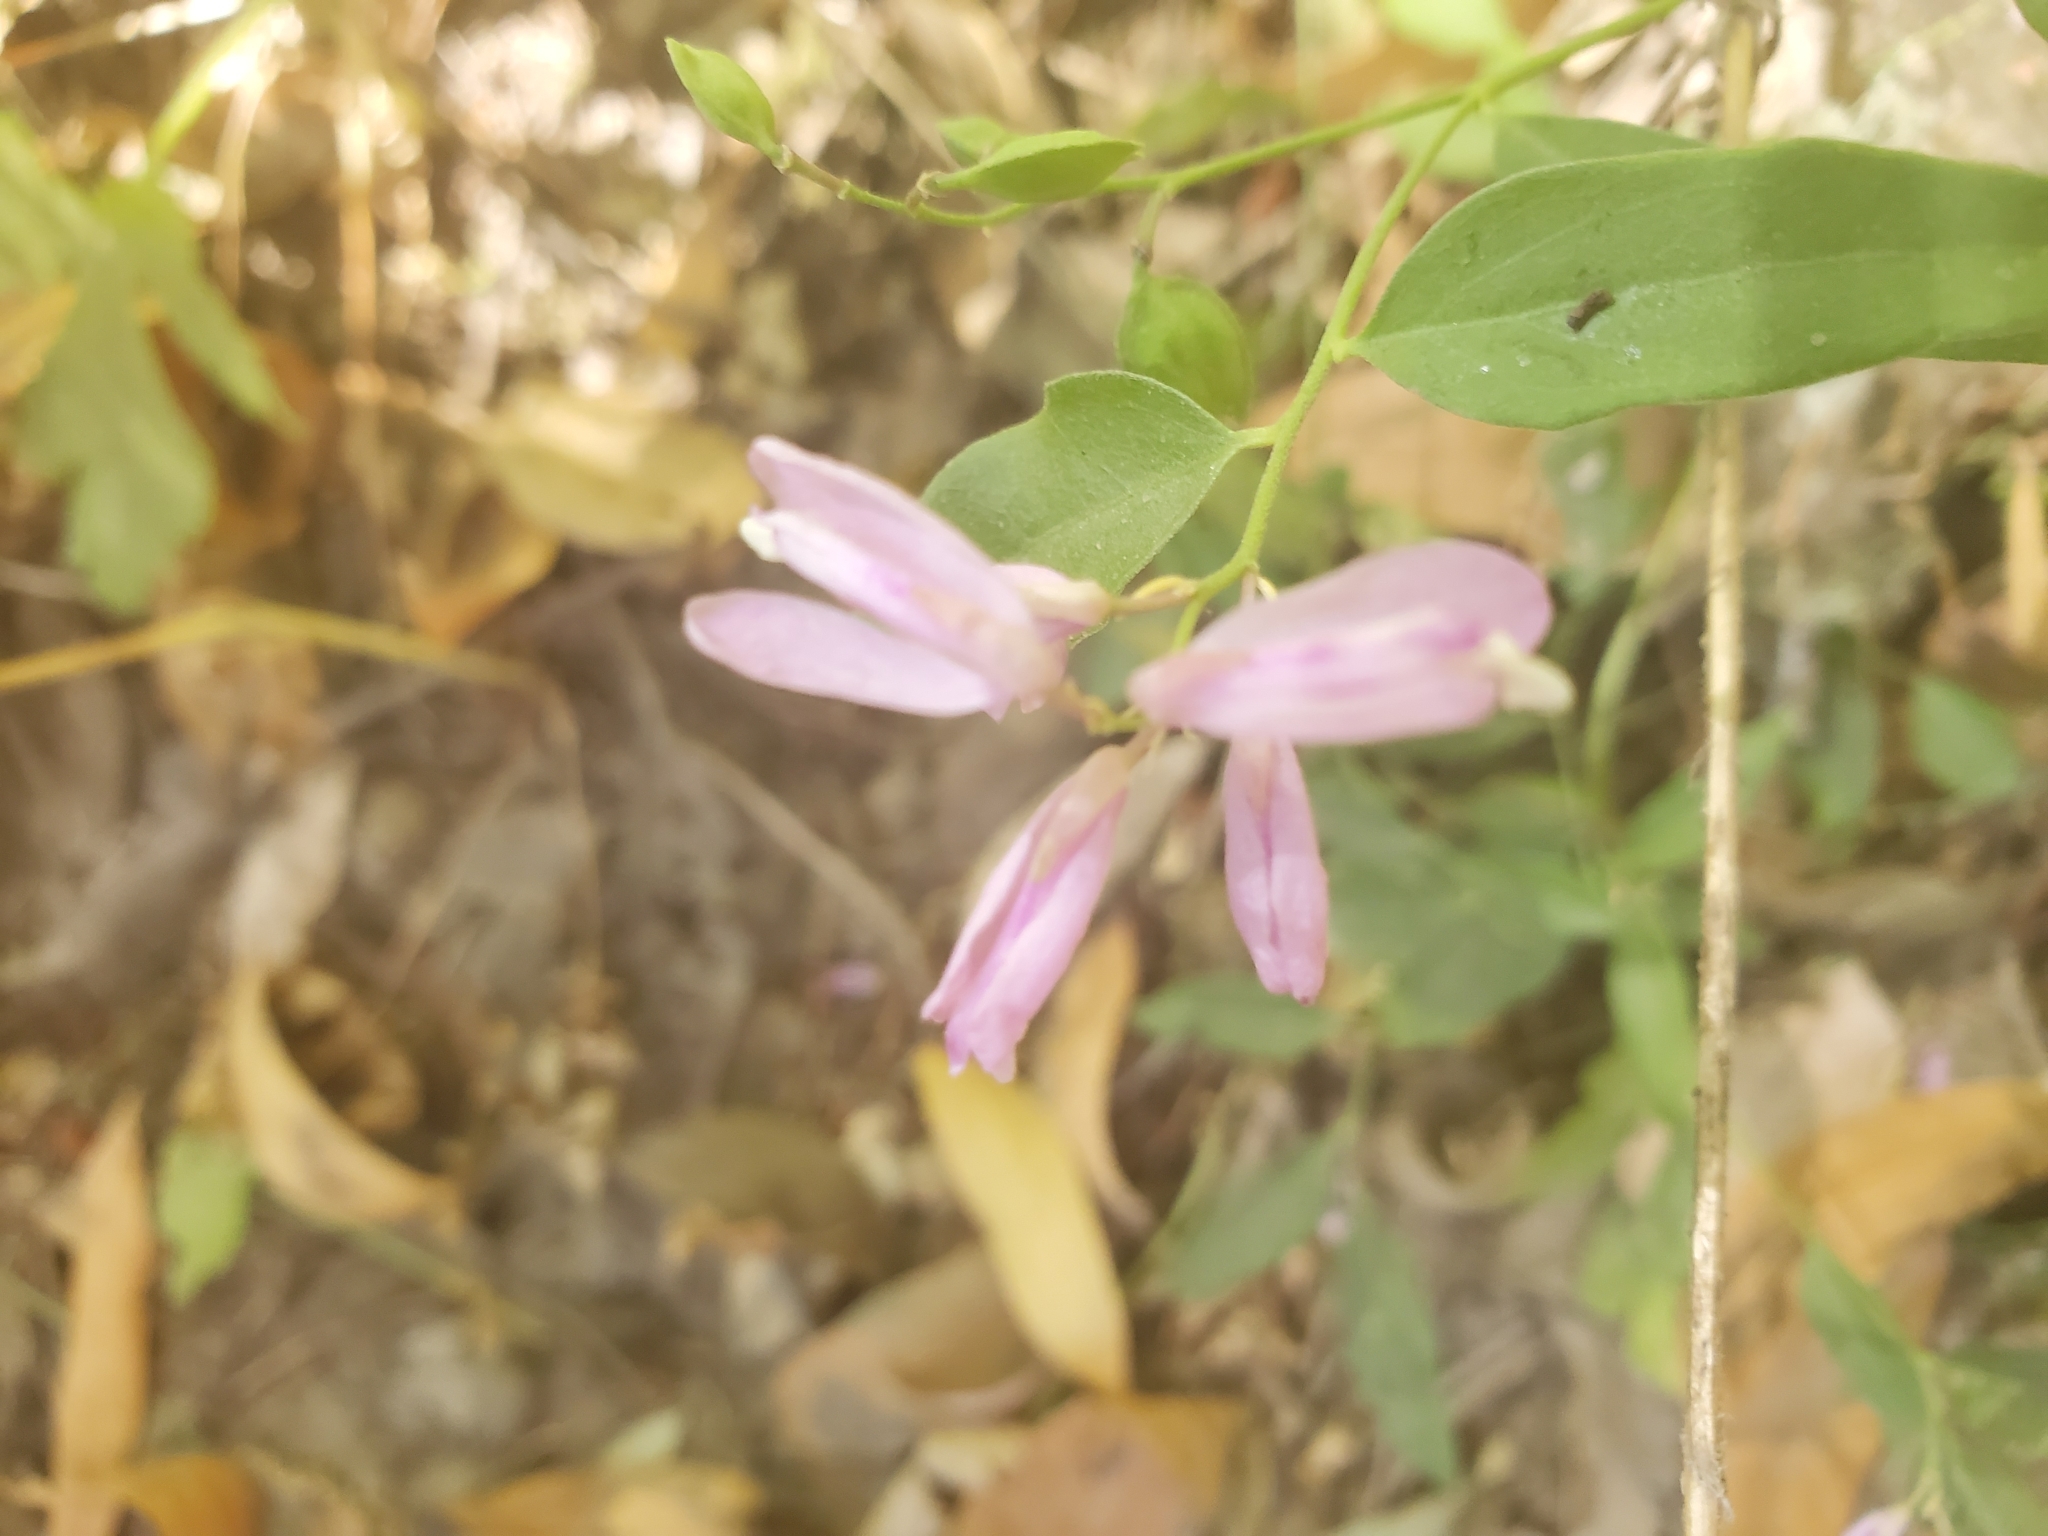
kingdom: Plantae
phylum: Tracheophyta
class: Magnoliopsida
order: Fabales
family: Polygalaceae
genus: Rhinotropis
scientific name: Rhinotropis californica
